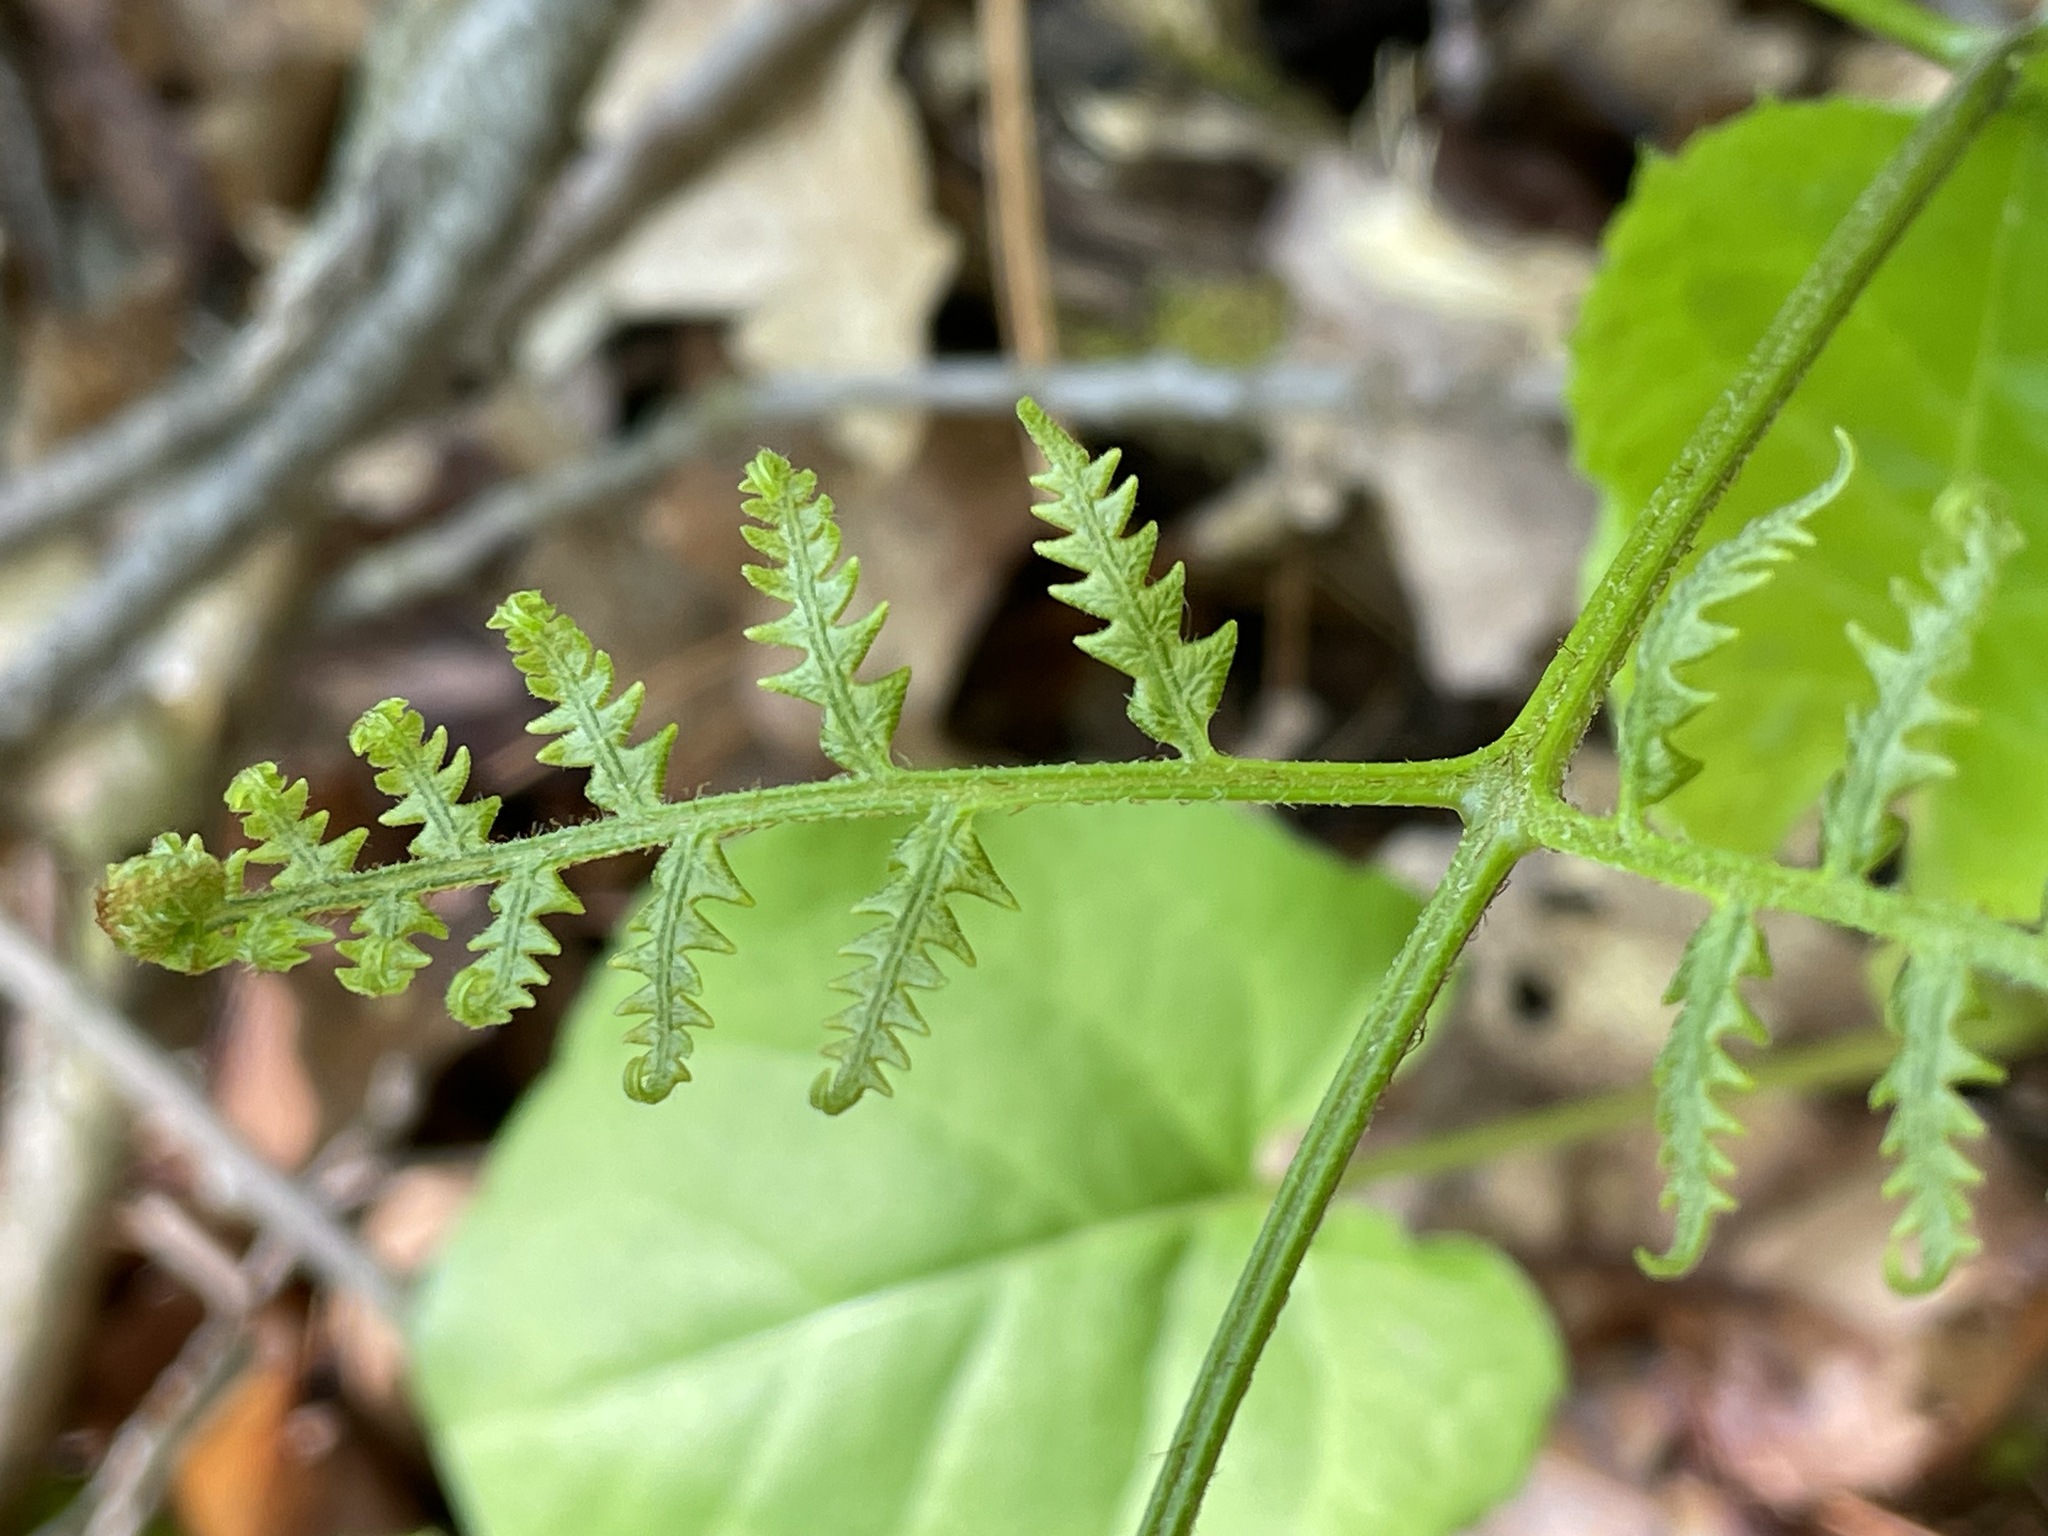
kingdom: Plantae
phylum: Tracheophyta
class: Polypodiopsida
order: Polypodiales
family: Dennstaedtiaceae
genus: Pteridium
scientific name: Pteridium aquilinum
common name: Bracken
